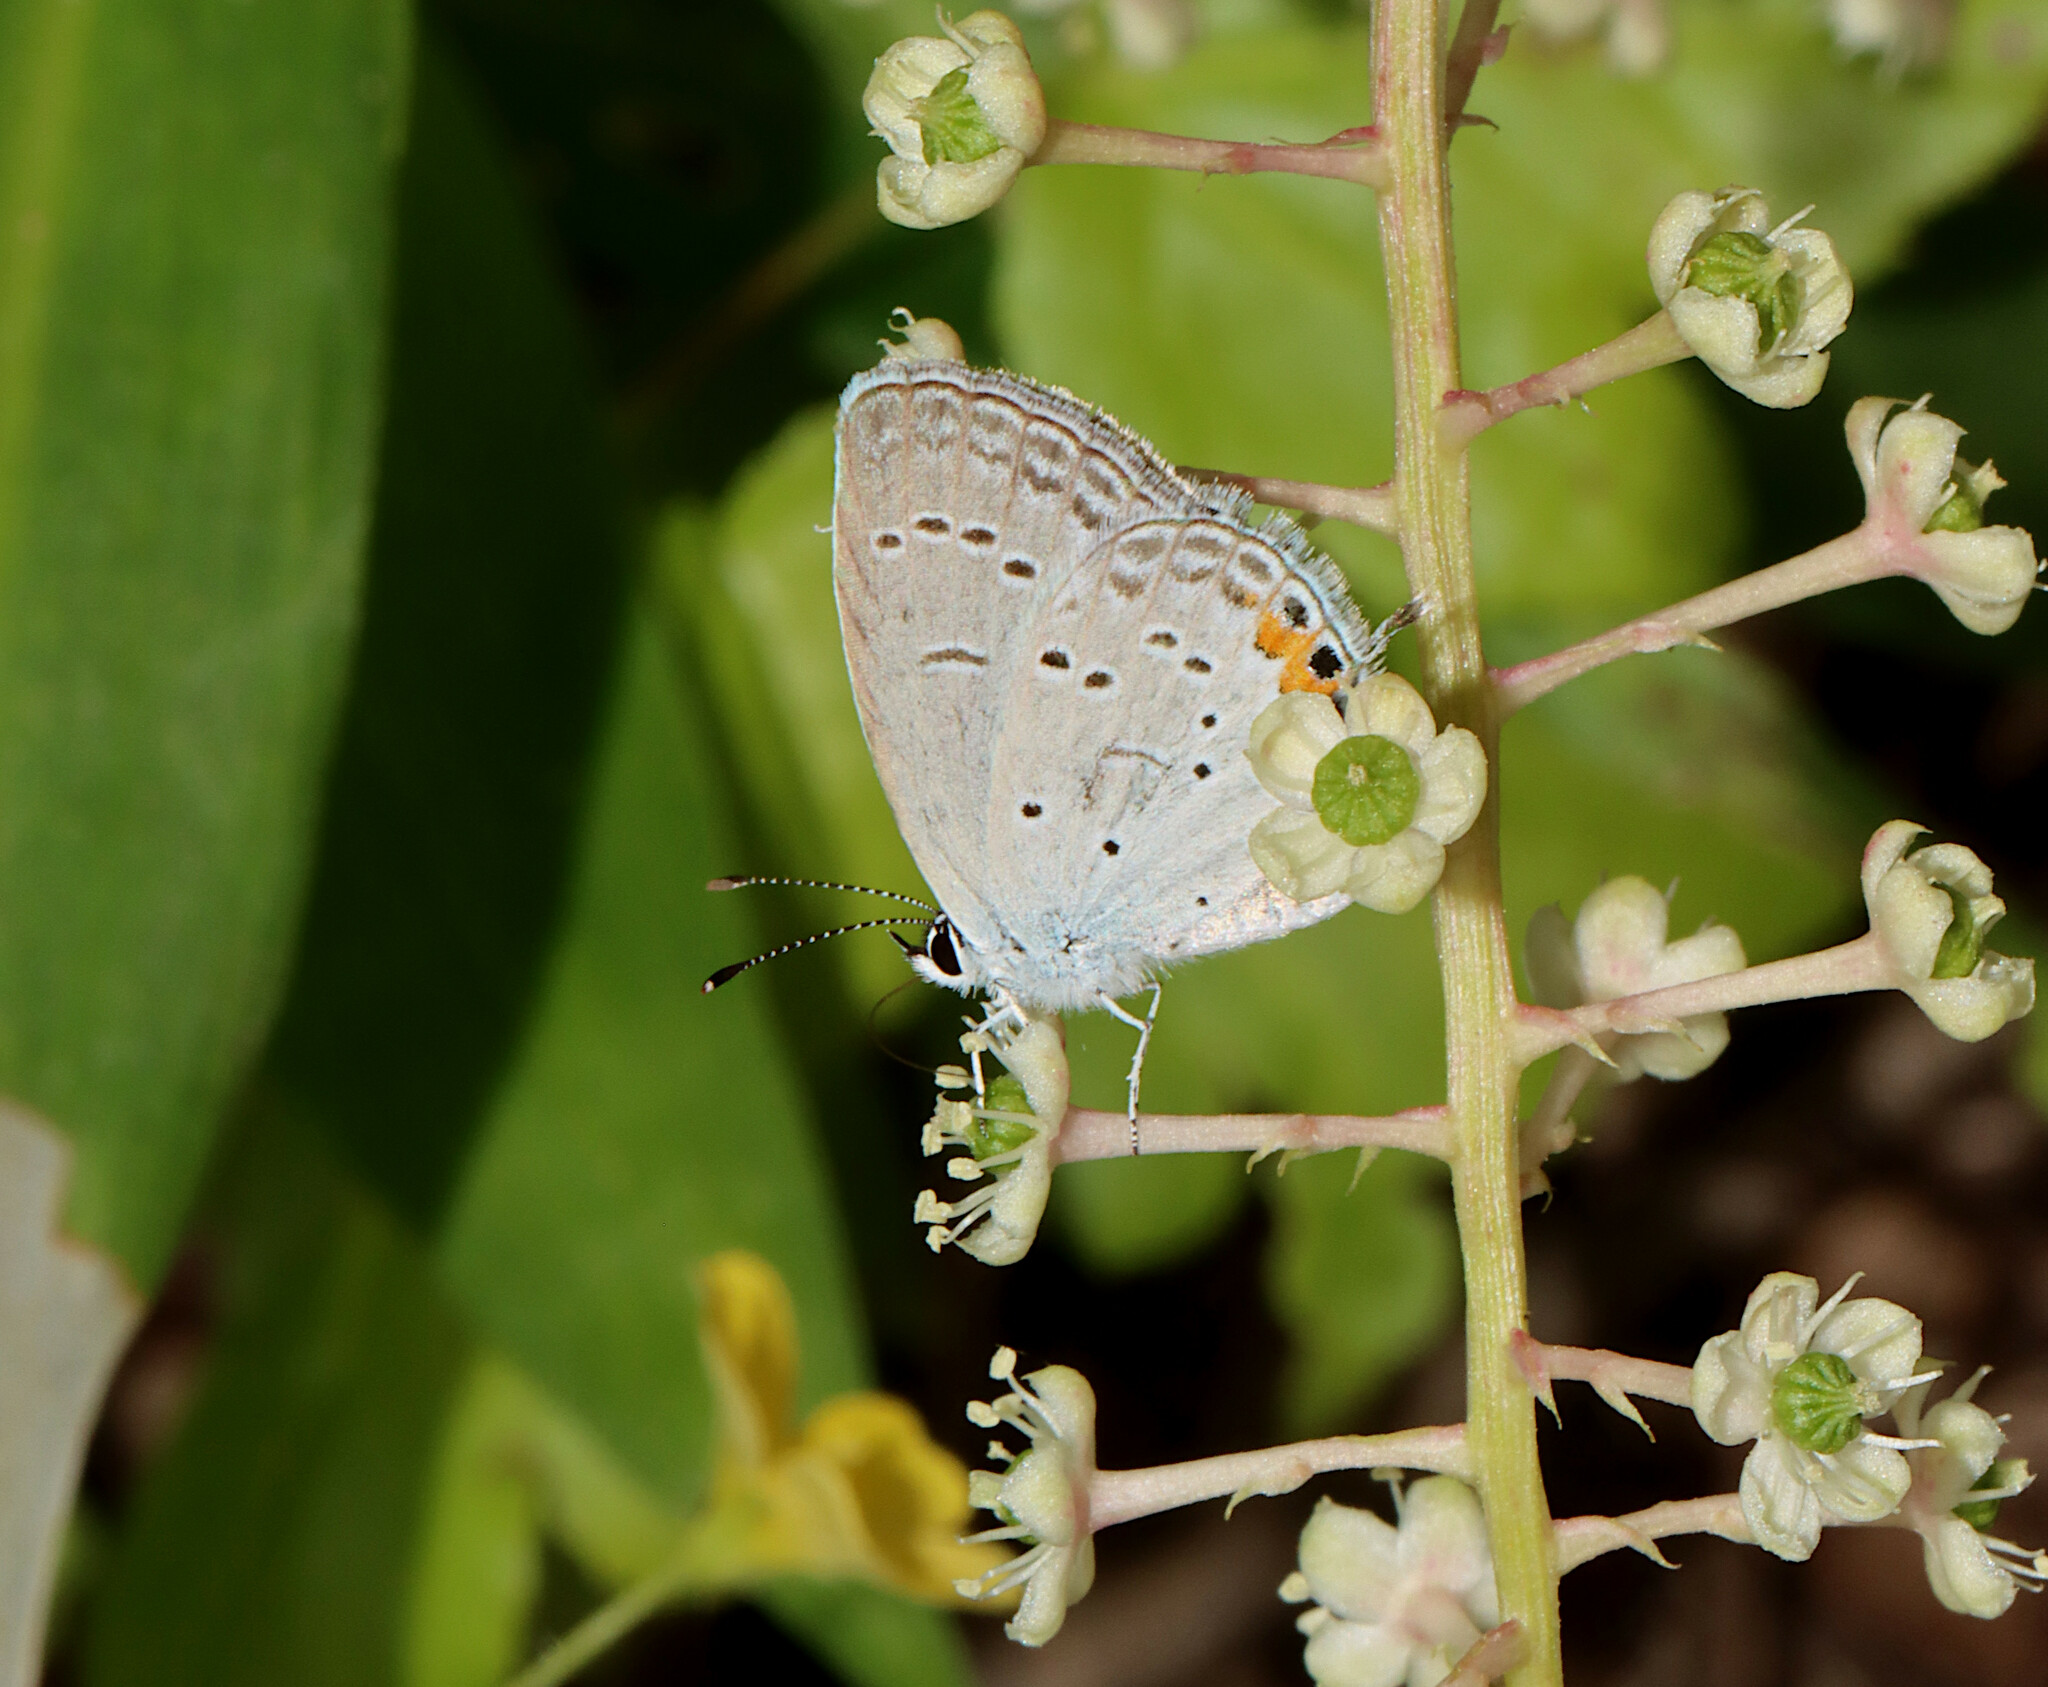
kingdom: Animalia
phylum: Arthropoda
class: Insecta
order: Lepidoptera
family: Lycaenidae
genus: Elkalyce
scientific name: Elkalyce comyntas
